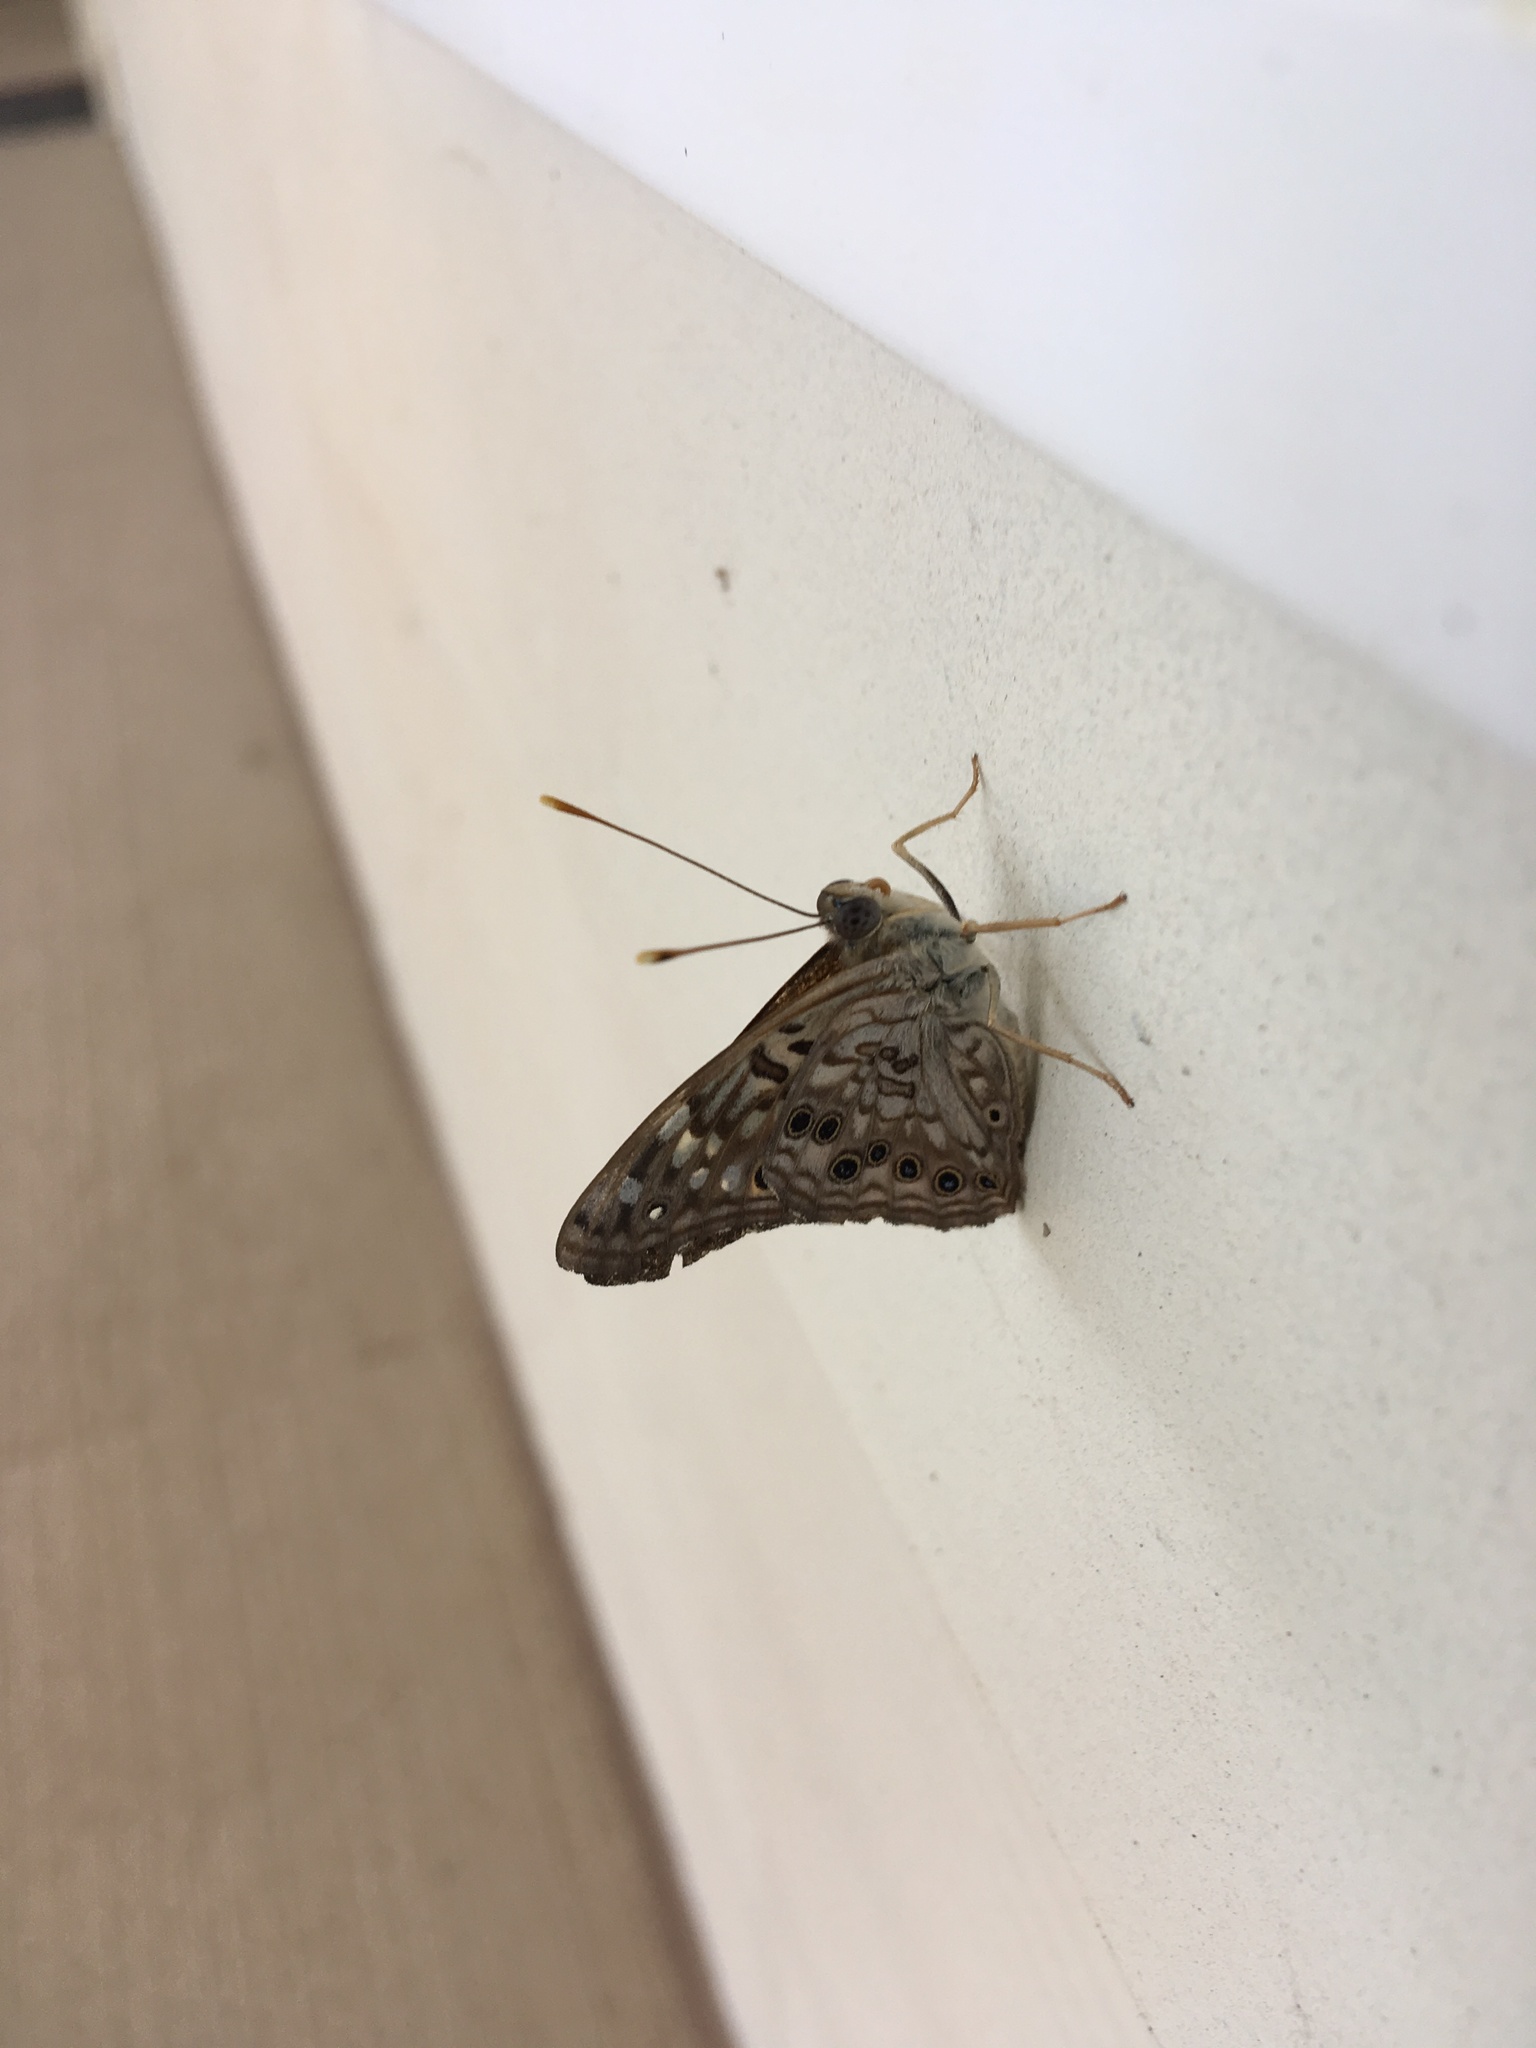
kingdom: Animalia
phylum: Arthropoda
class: Insecta
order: Lepidoptera
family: Nymphalidae
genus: Asterocampa
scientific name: Asterocampa celtis
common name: Hackberry emperor
